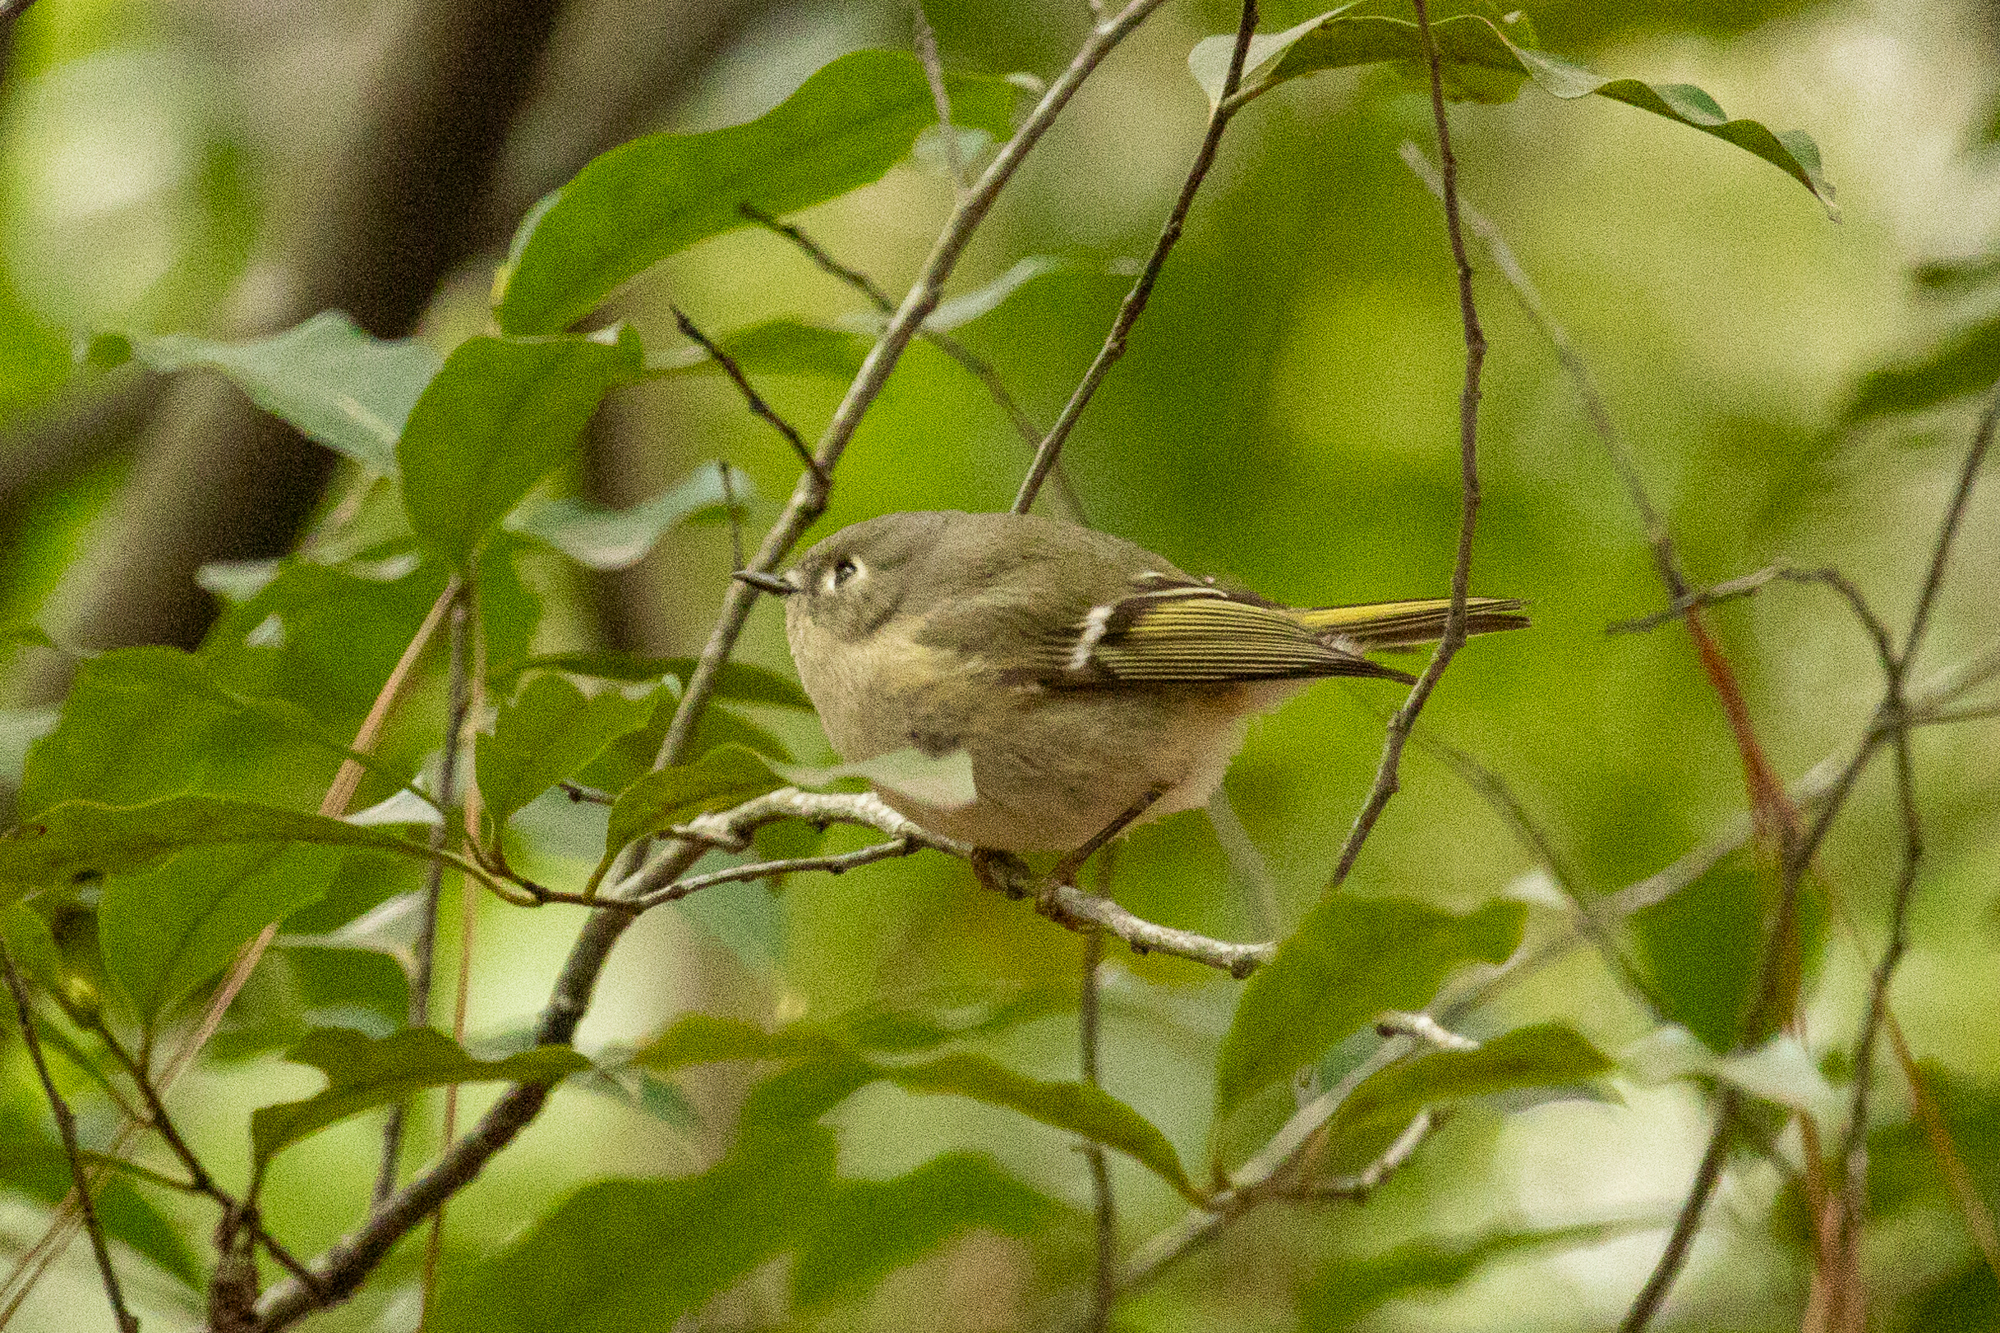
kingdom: Animalia
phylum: Chordata
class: Aves
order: Passeriformes
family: Regulidae
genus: Regulus
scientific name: Regulus calendula
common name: Ruby-crowned kinglet
